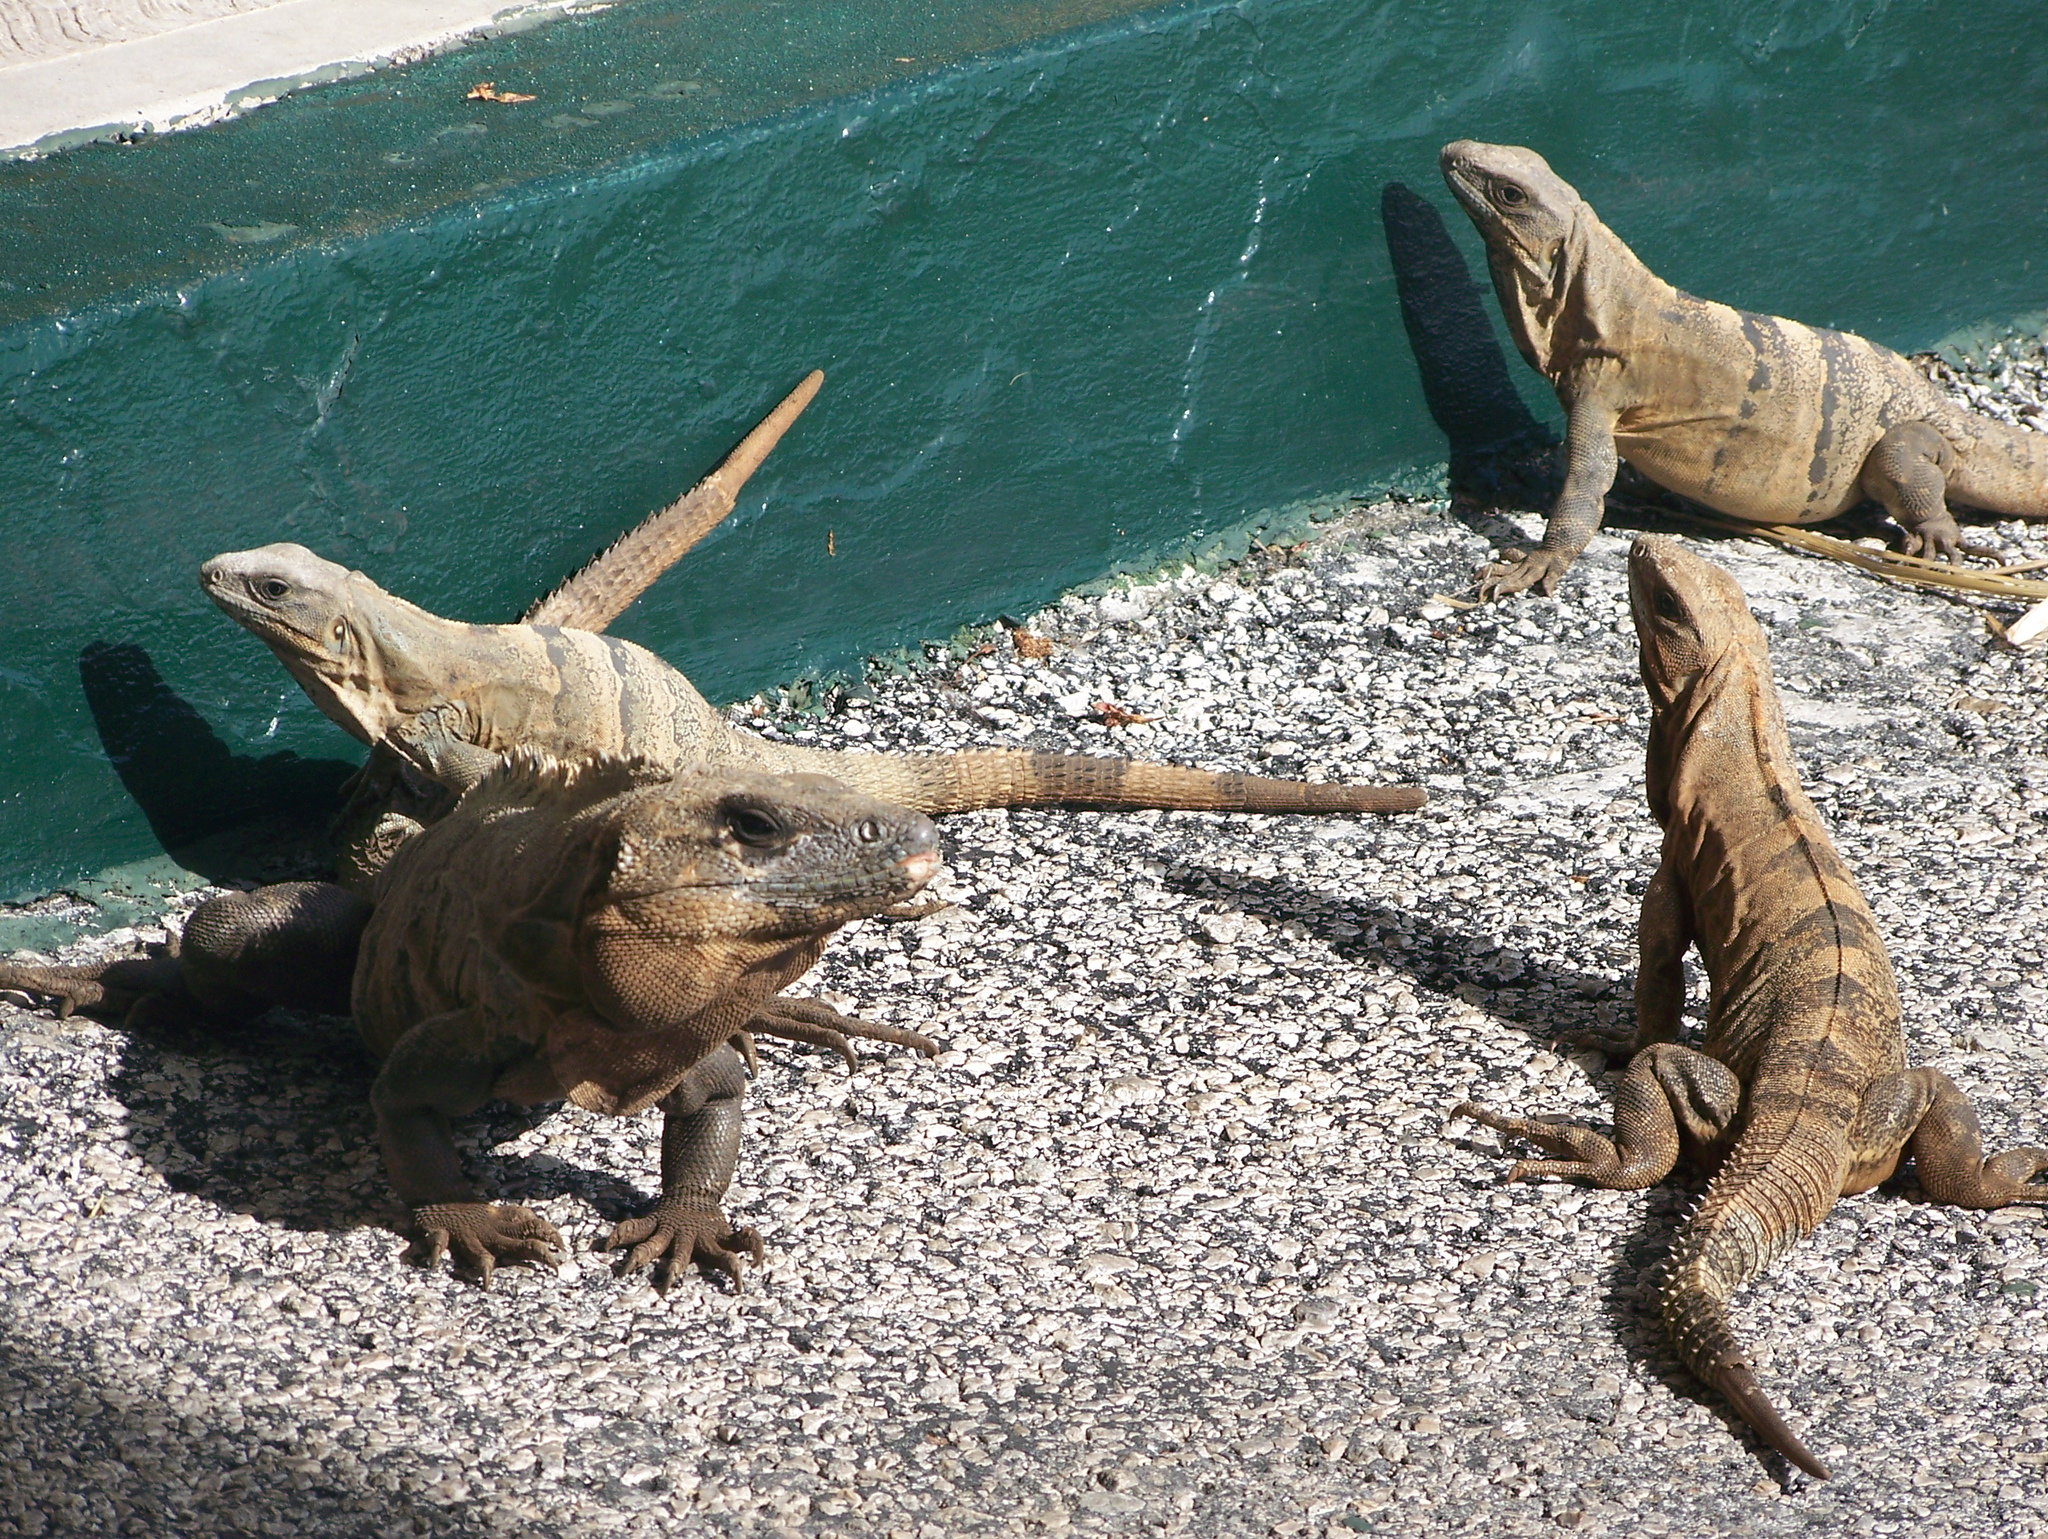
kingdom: Animalia
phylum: Chordata
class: Squamata
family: Iguanidae
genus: Ctenosaura
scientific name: Ctenosaura similis
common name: Black spiny-tailed iguana
